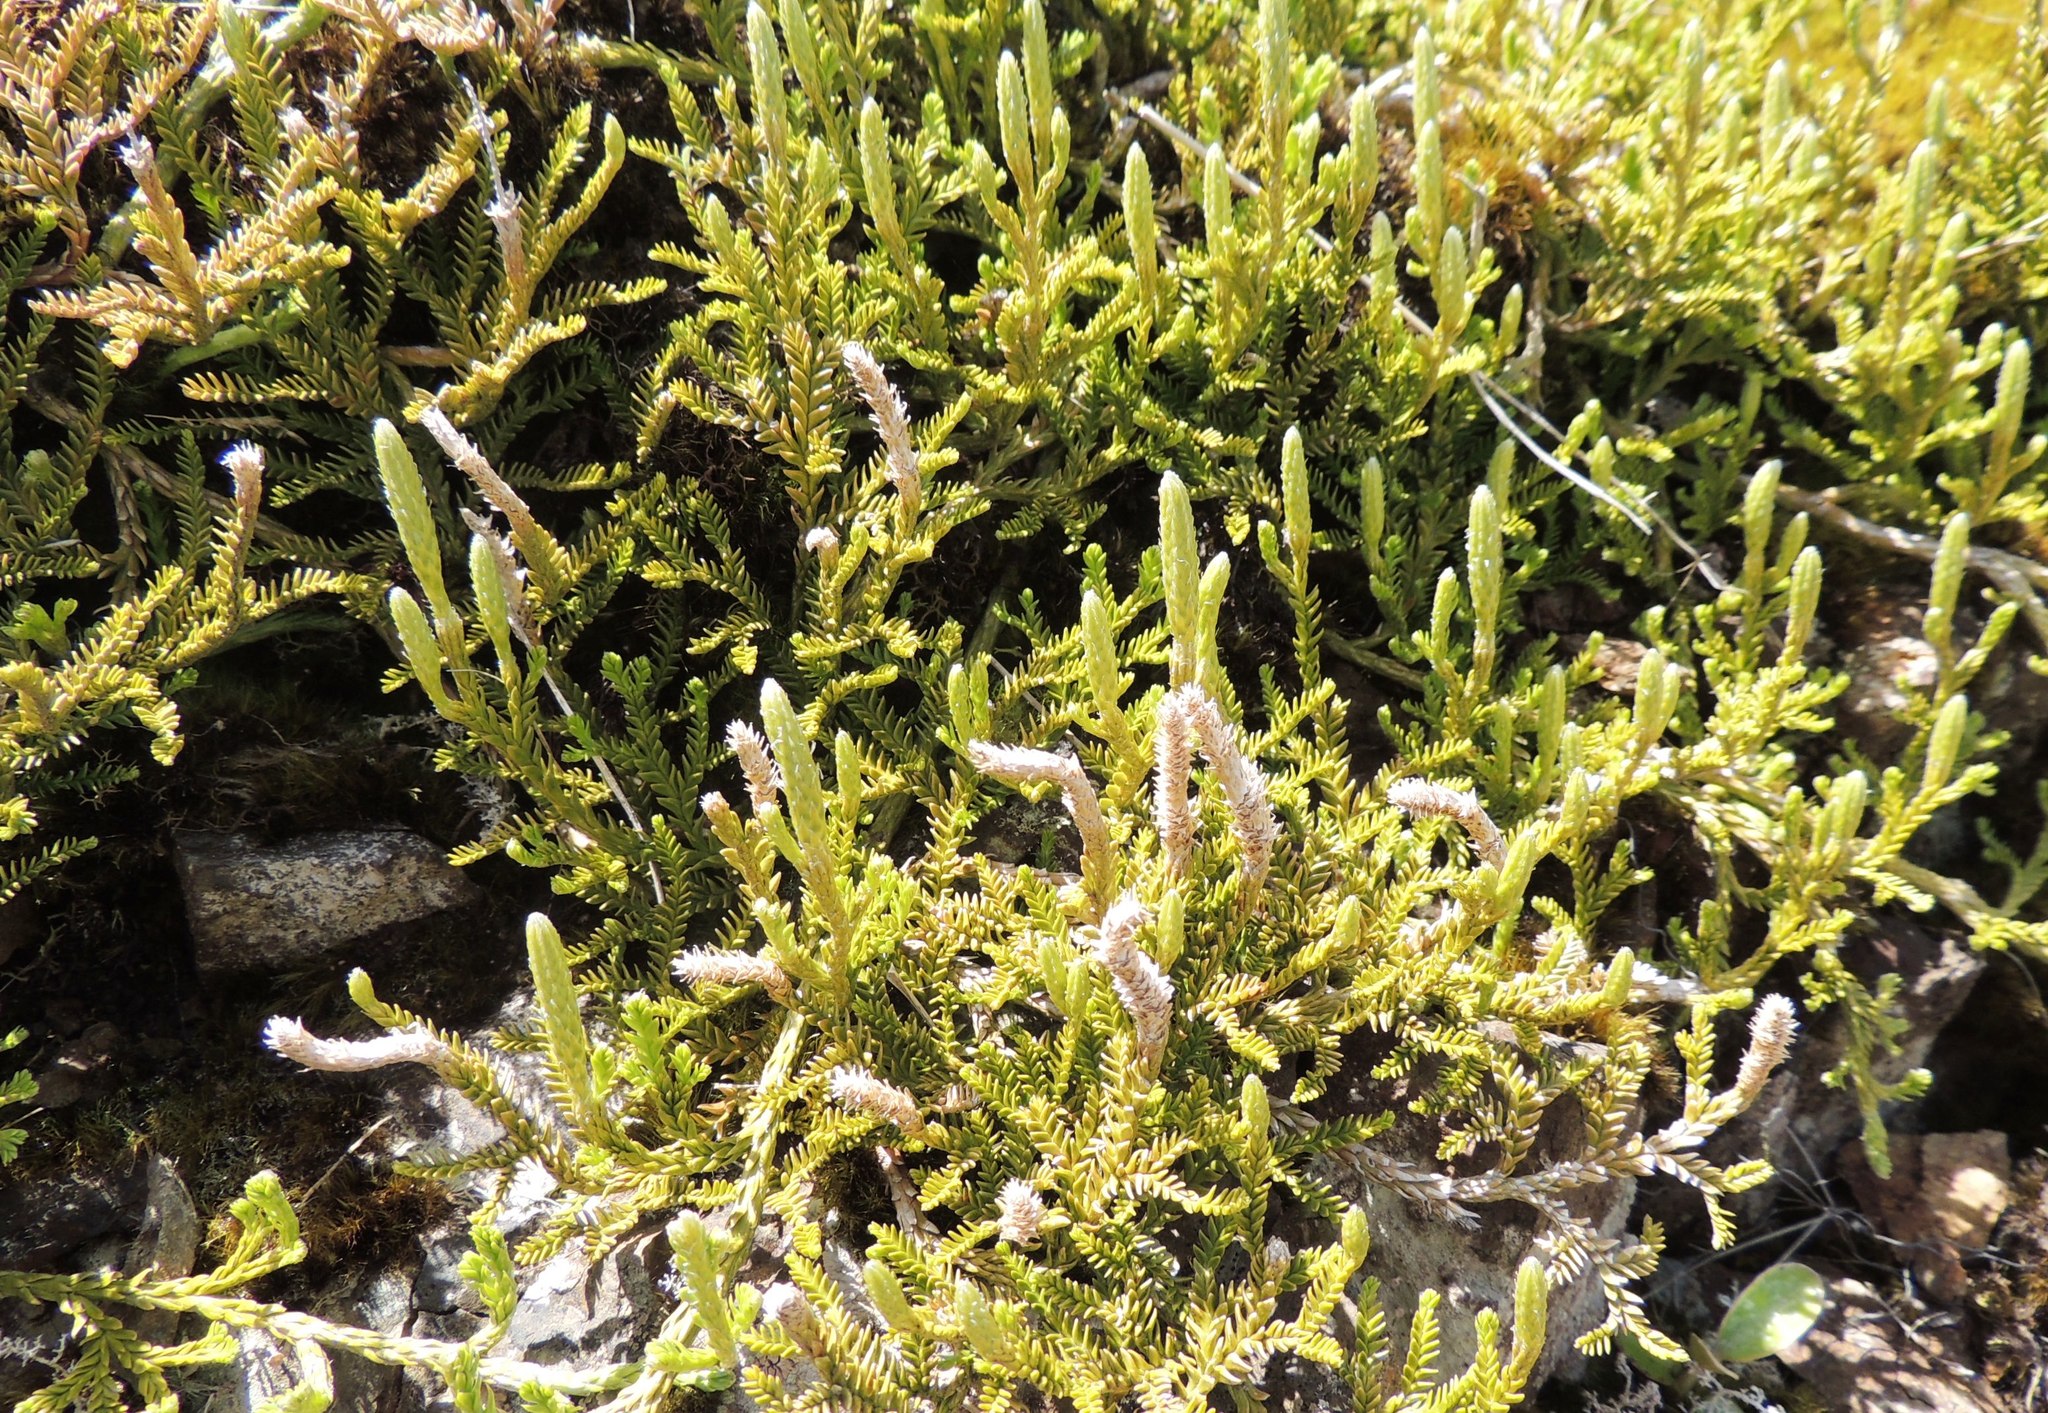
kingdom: Plantae
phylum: Tracheophyta
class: Lycopodiopsida
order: Lycopodiales
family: Lycopodiaceae
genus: Diphasium
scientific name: Diphasium scariosum
